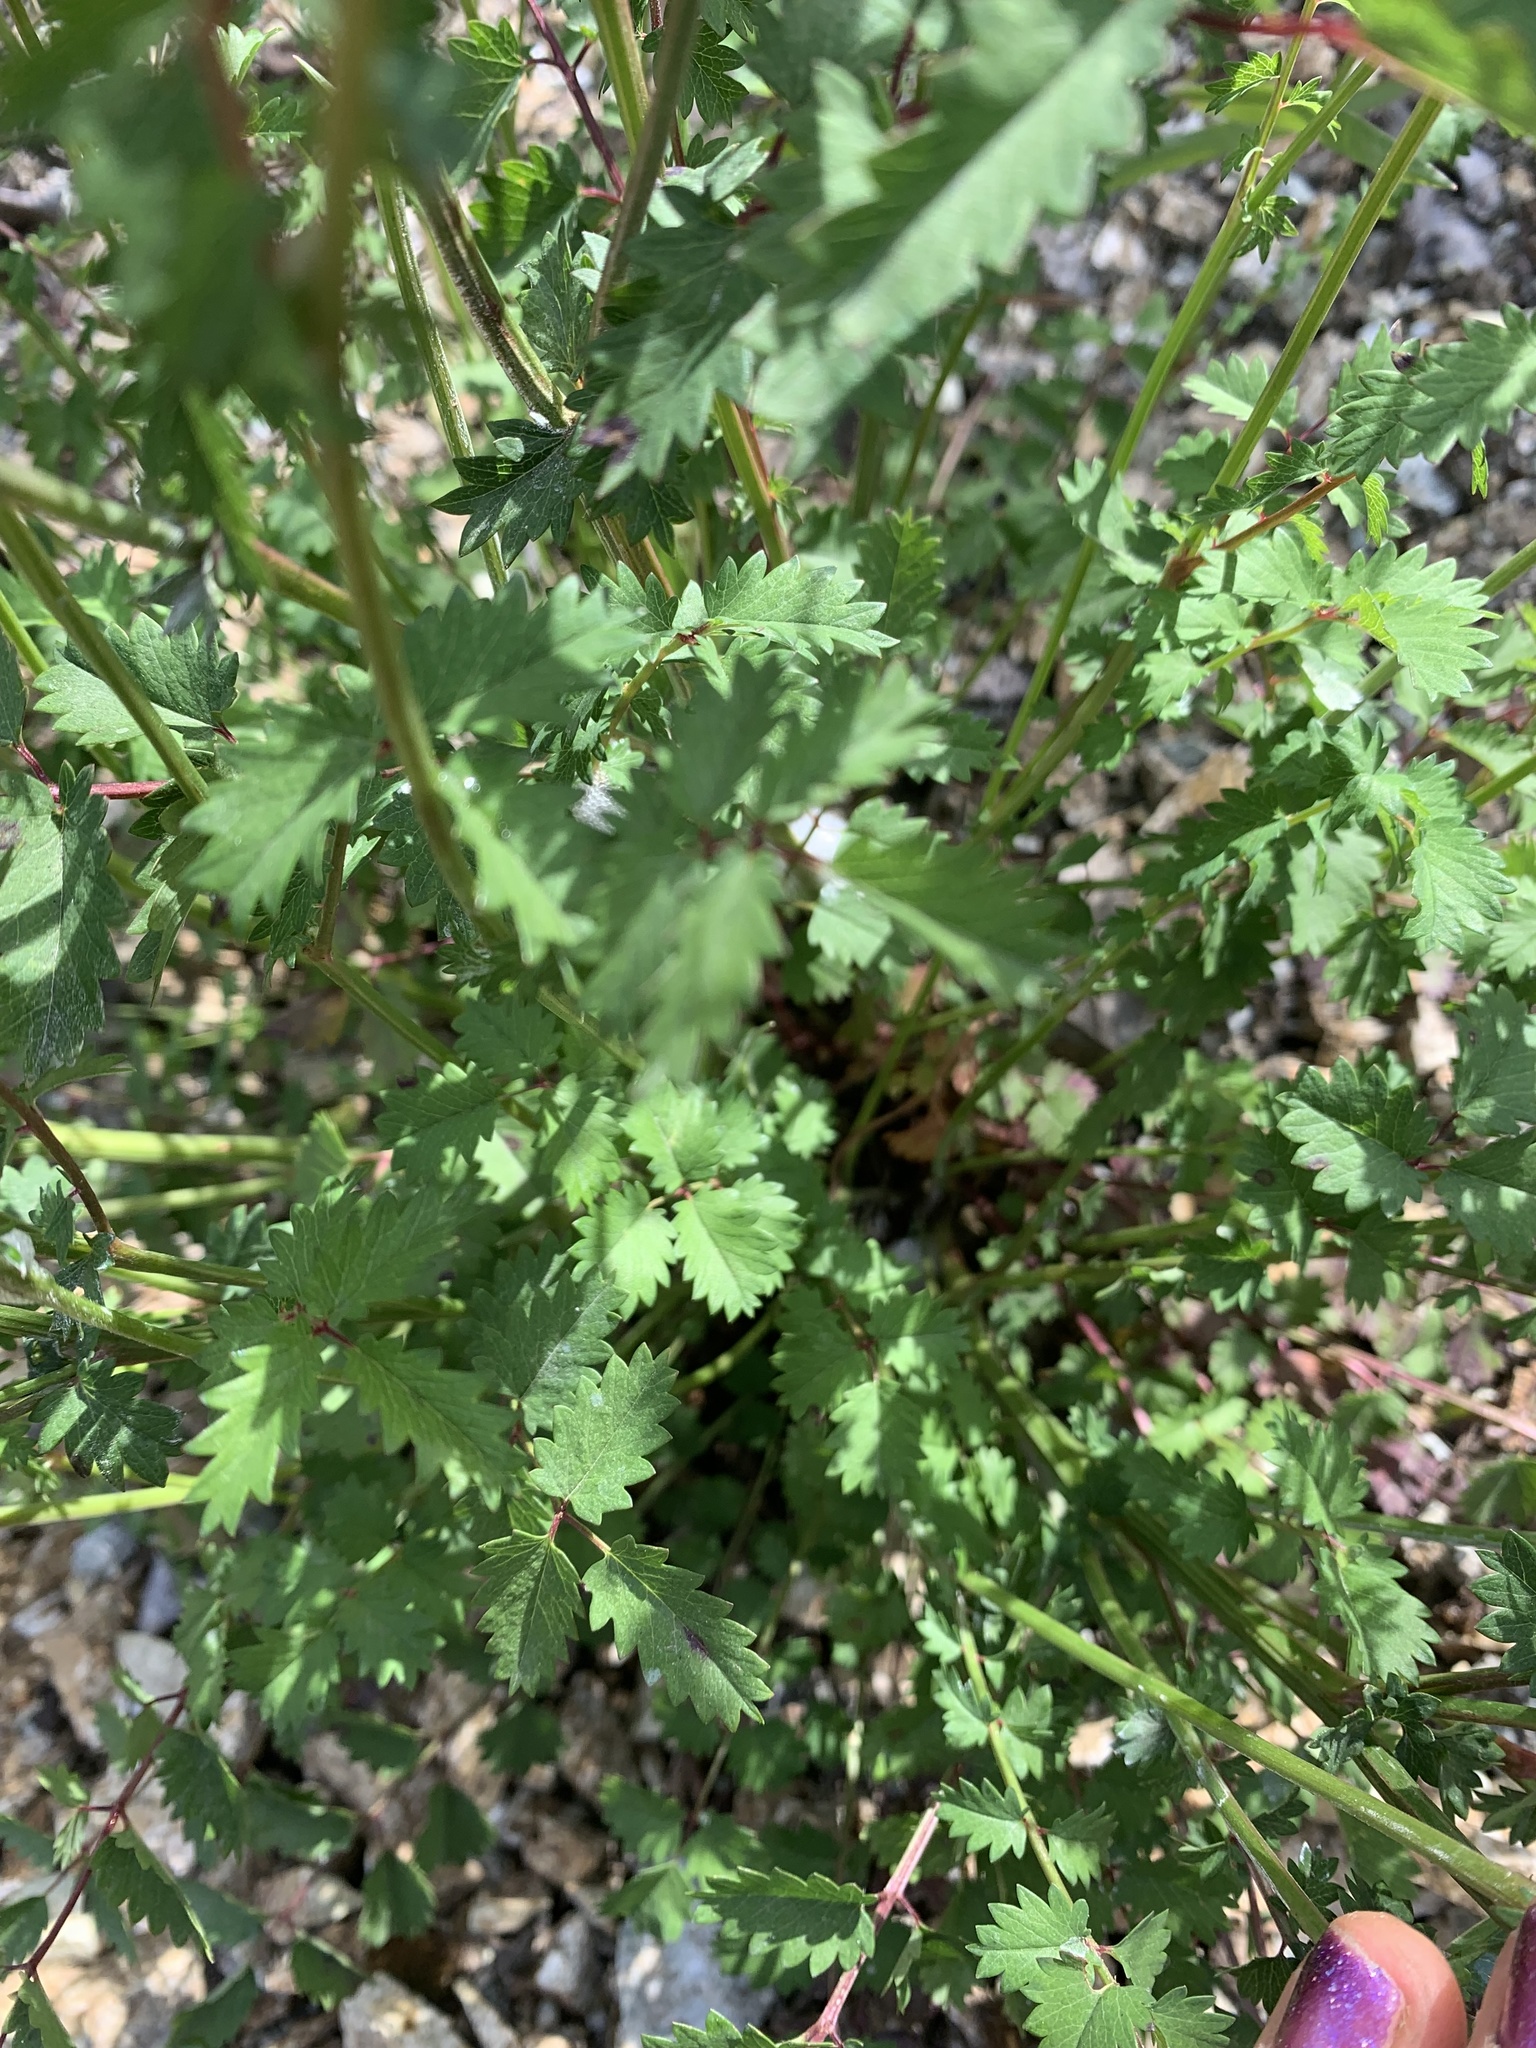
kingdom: Plantae
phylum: Tracheophyta
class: Magnoliopsida
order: Rosales
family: Rosaceae
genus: Poterium
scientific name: Poterium sanguisorba
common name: Salad burnet
